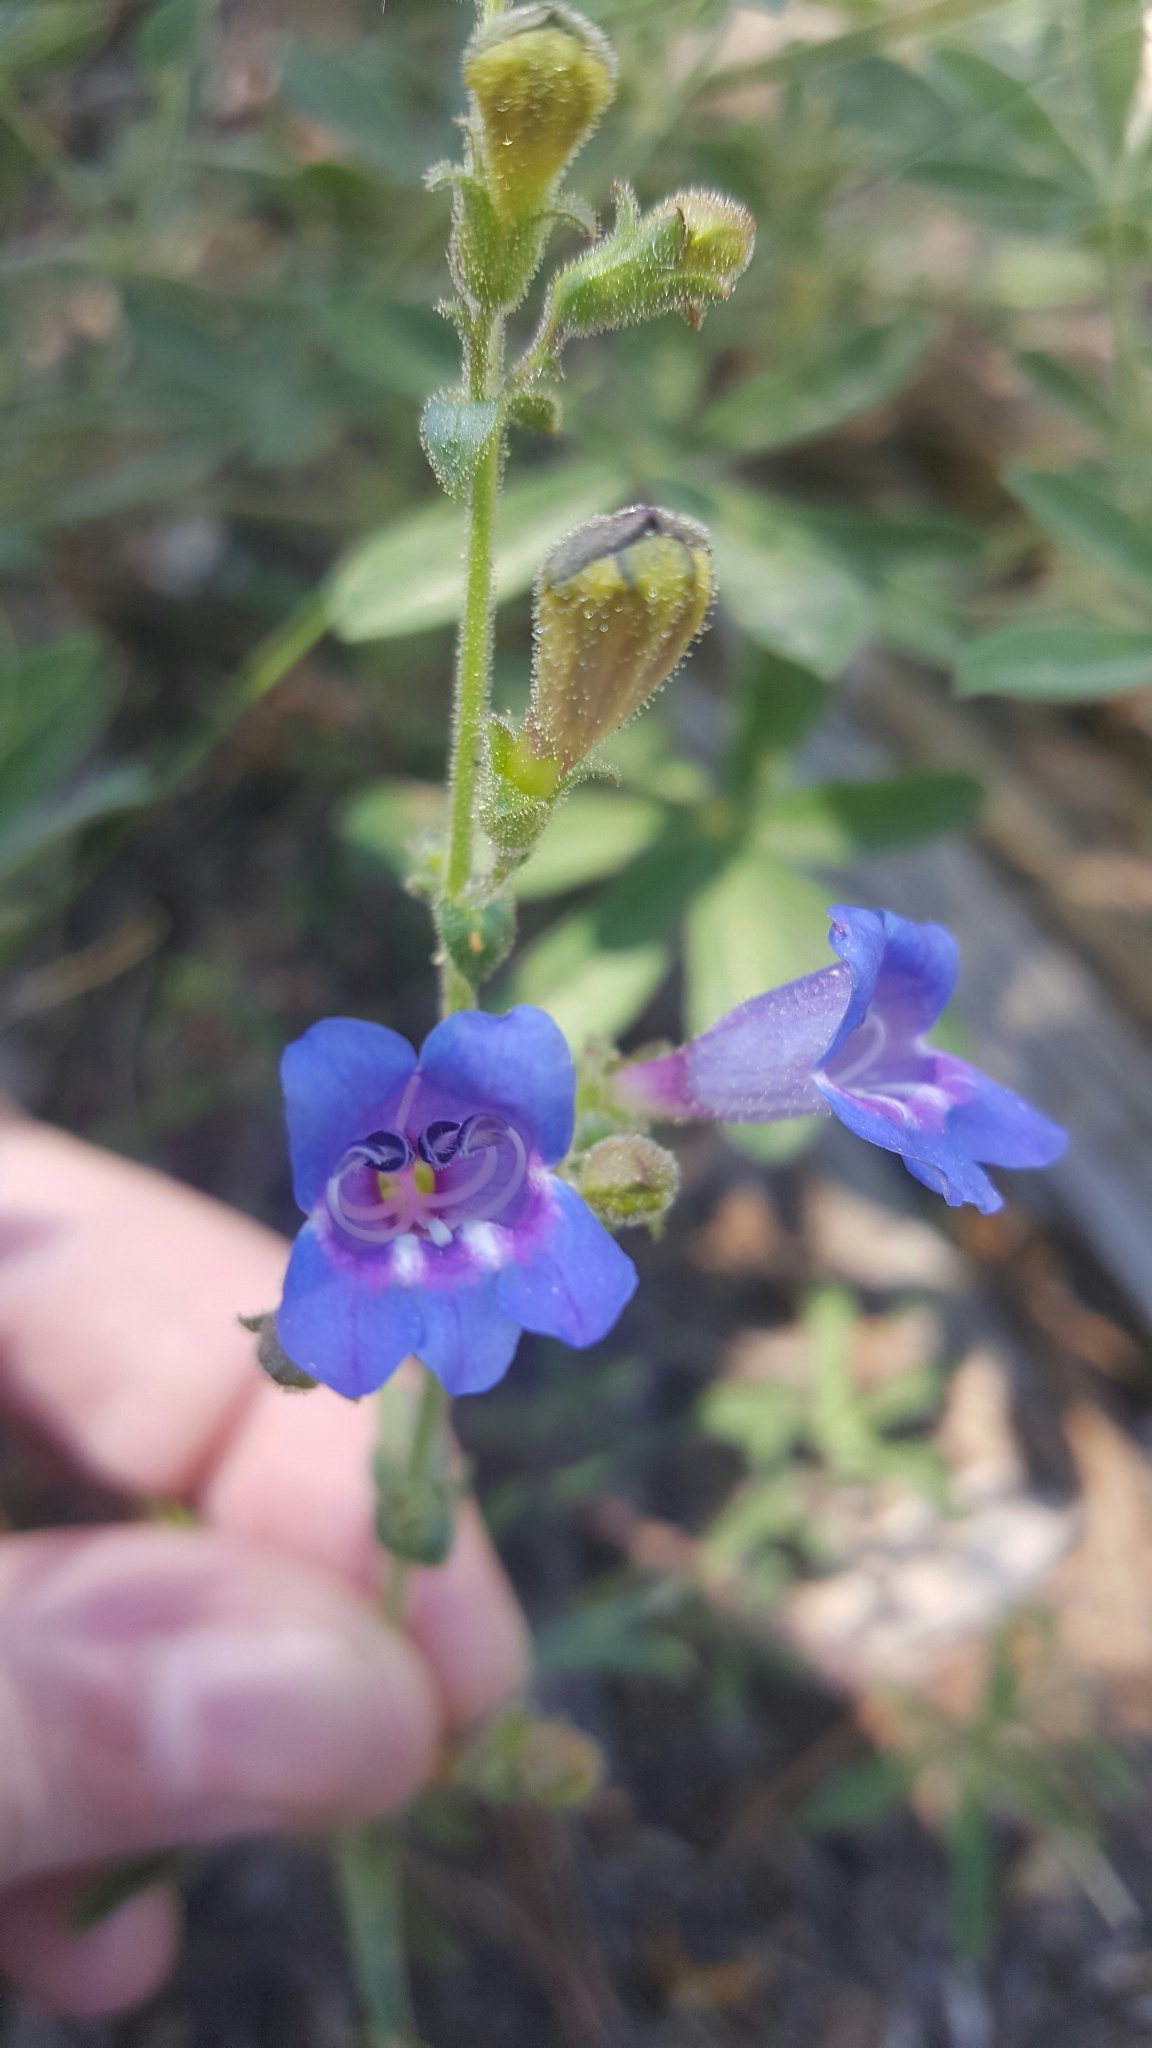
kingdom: Plantae
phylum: Tracheophyta
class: Magnoliopsida
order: Lamiales
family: Plantaginaceae
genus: Penstemon
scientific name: Penstemon laetus
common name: Gay penstemon
